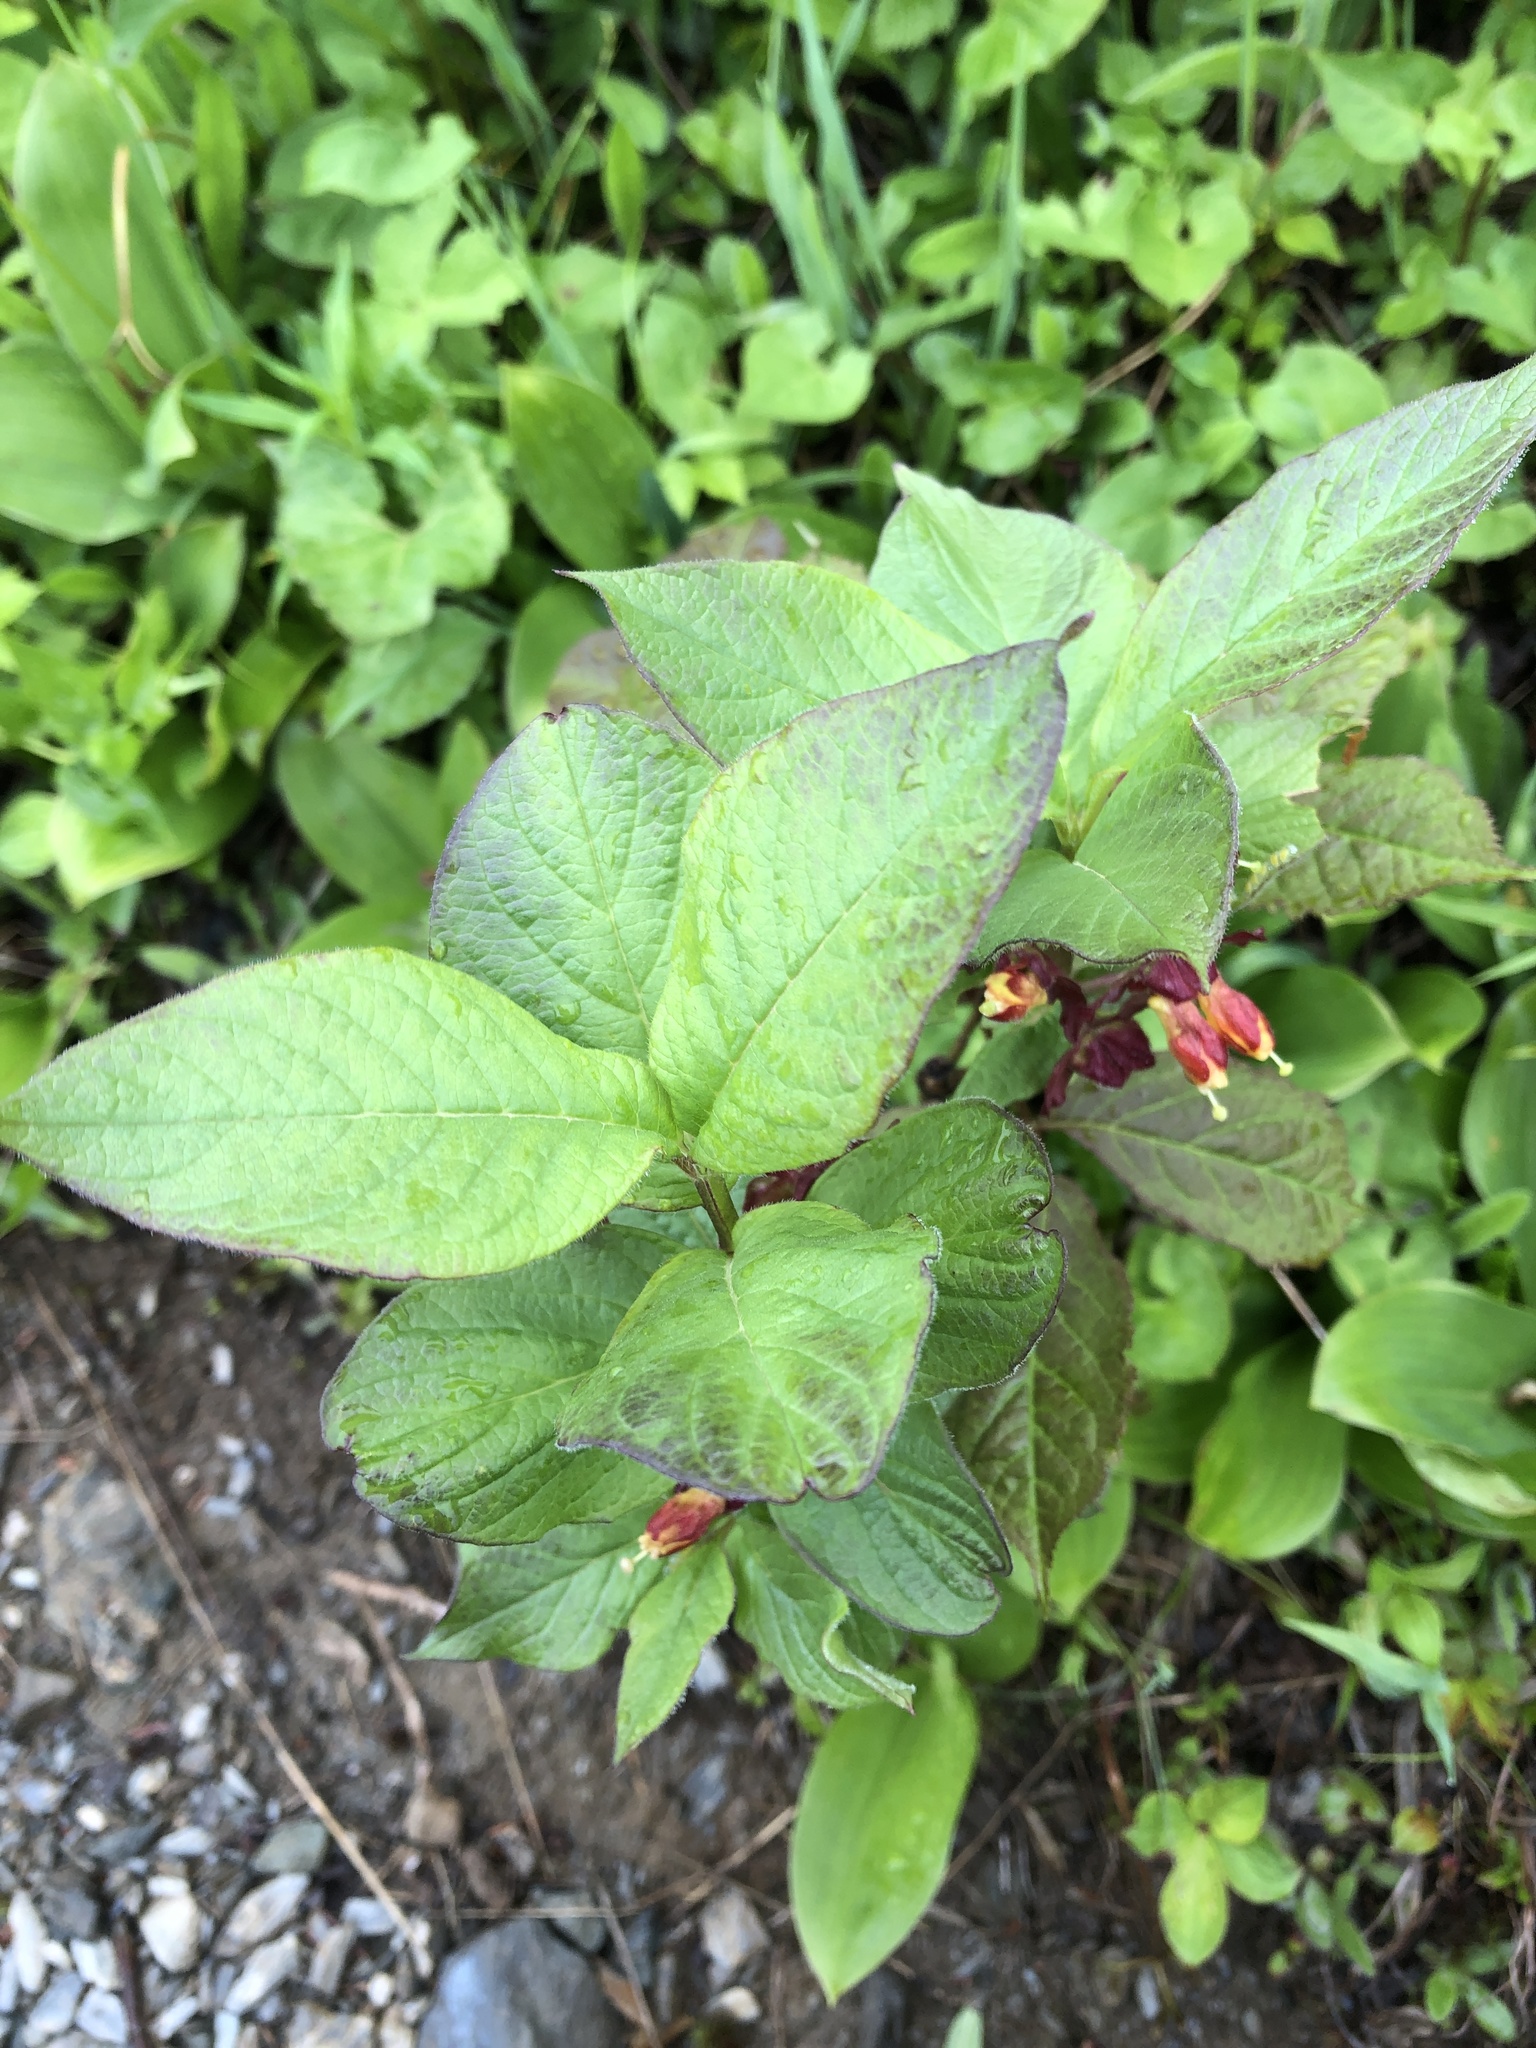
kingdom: Plantae
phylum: Tracheophyta
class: Magnoliopsida
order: Dipsacales
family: Caprifoliaceae
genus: Lonicera
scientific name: Lonicera involucrata
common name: Californian honeysuckle
